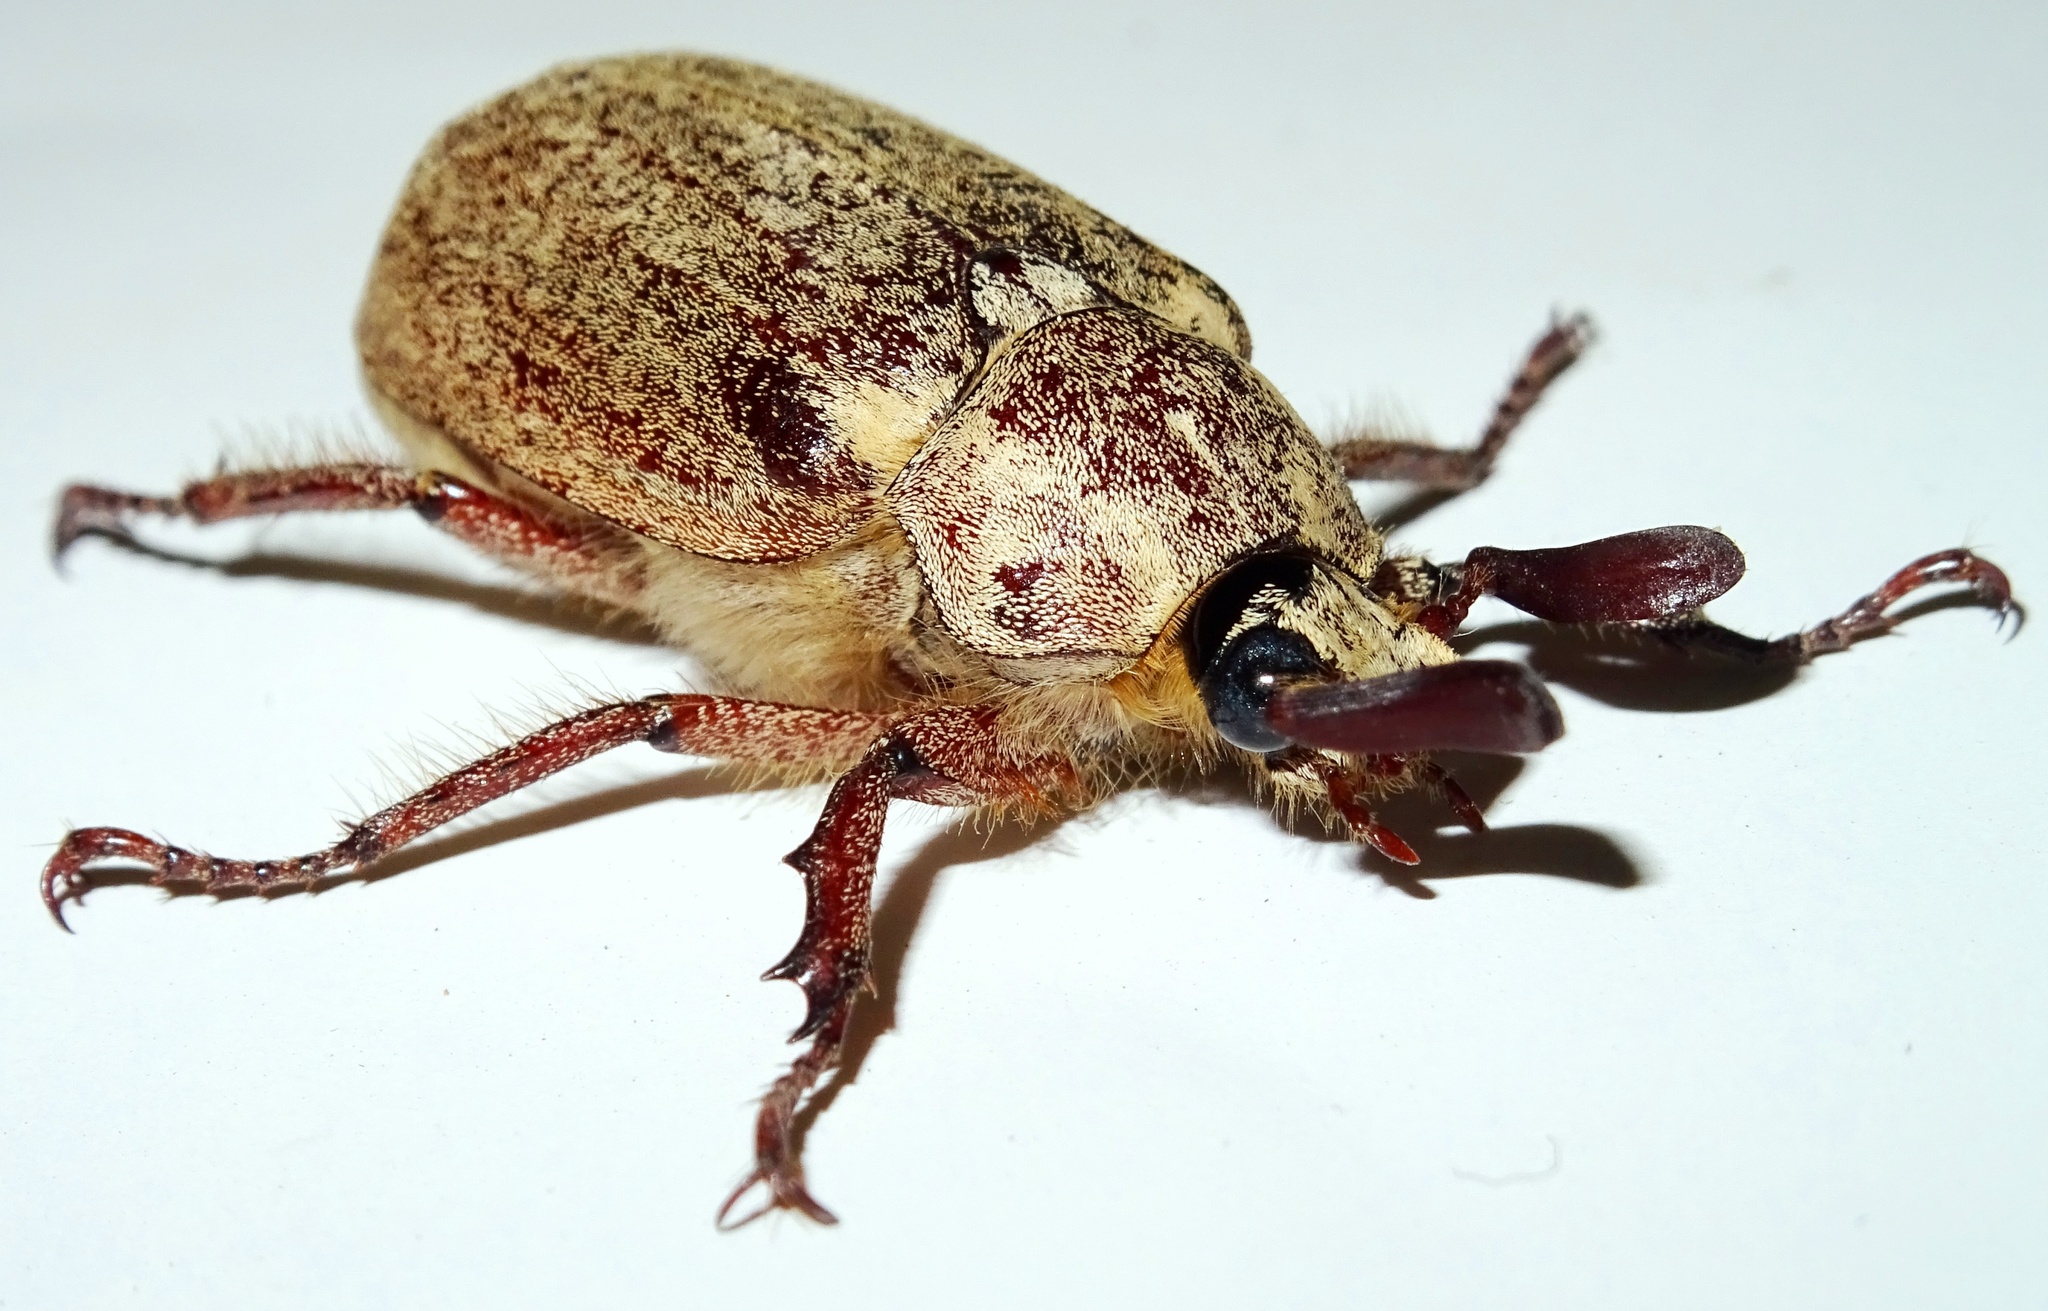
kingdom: Animalia
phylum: Arthropoda
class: Insecta
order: Coleoptera
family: Scarabaeidae
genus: Polyphylla
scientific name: Polyphylla adspersa
